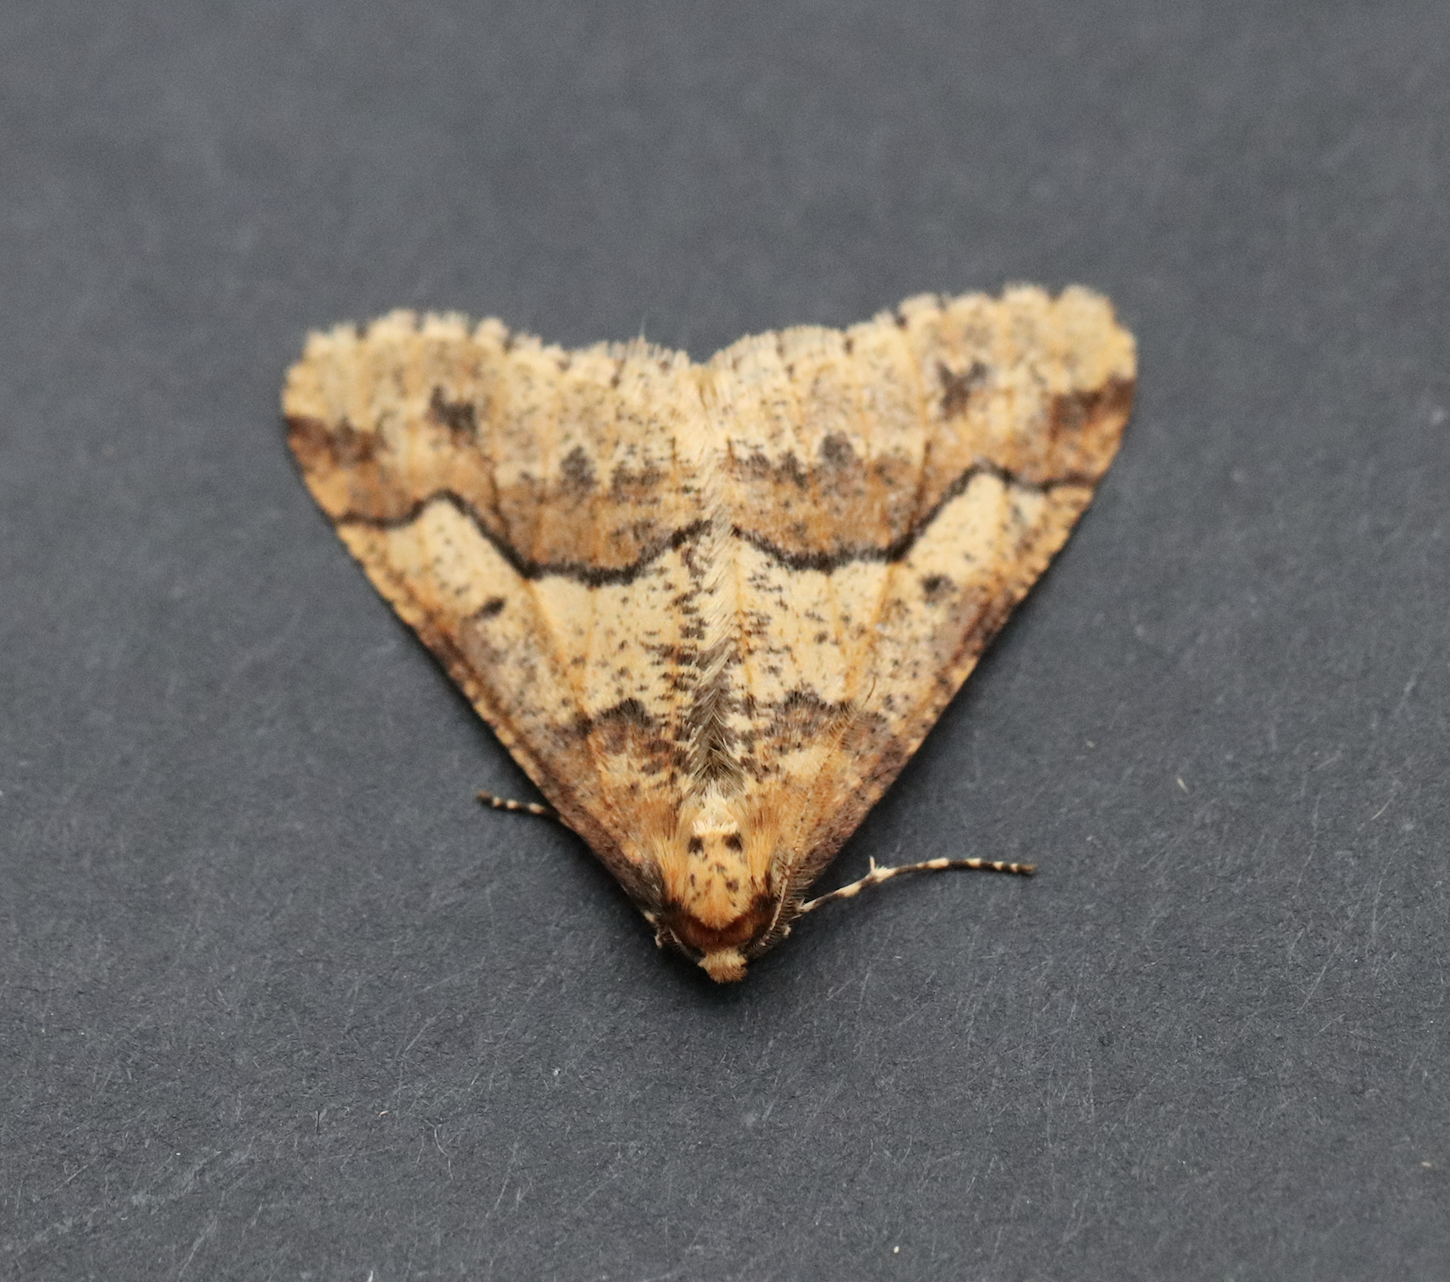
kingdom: Animalia
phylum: Arthropoda
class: Insecta
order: Lepidoptera
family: Geometridae
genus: Erannis
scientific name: Erannis defoliaria
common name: Mottled umber
